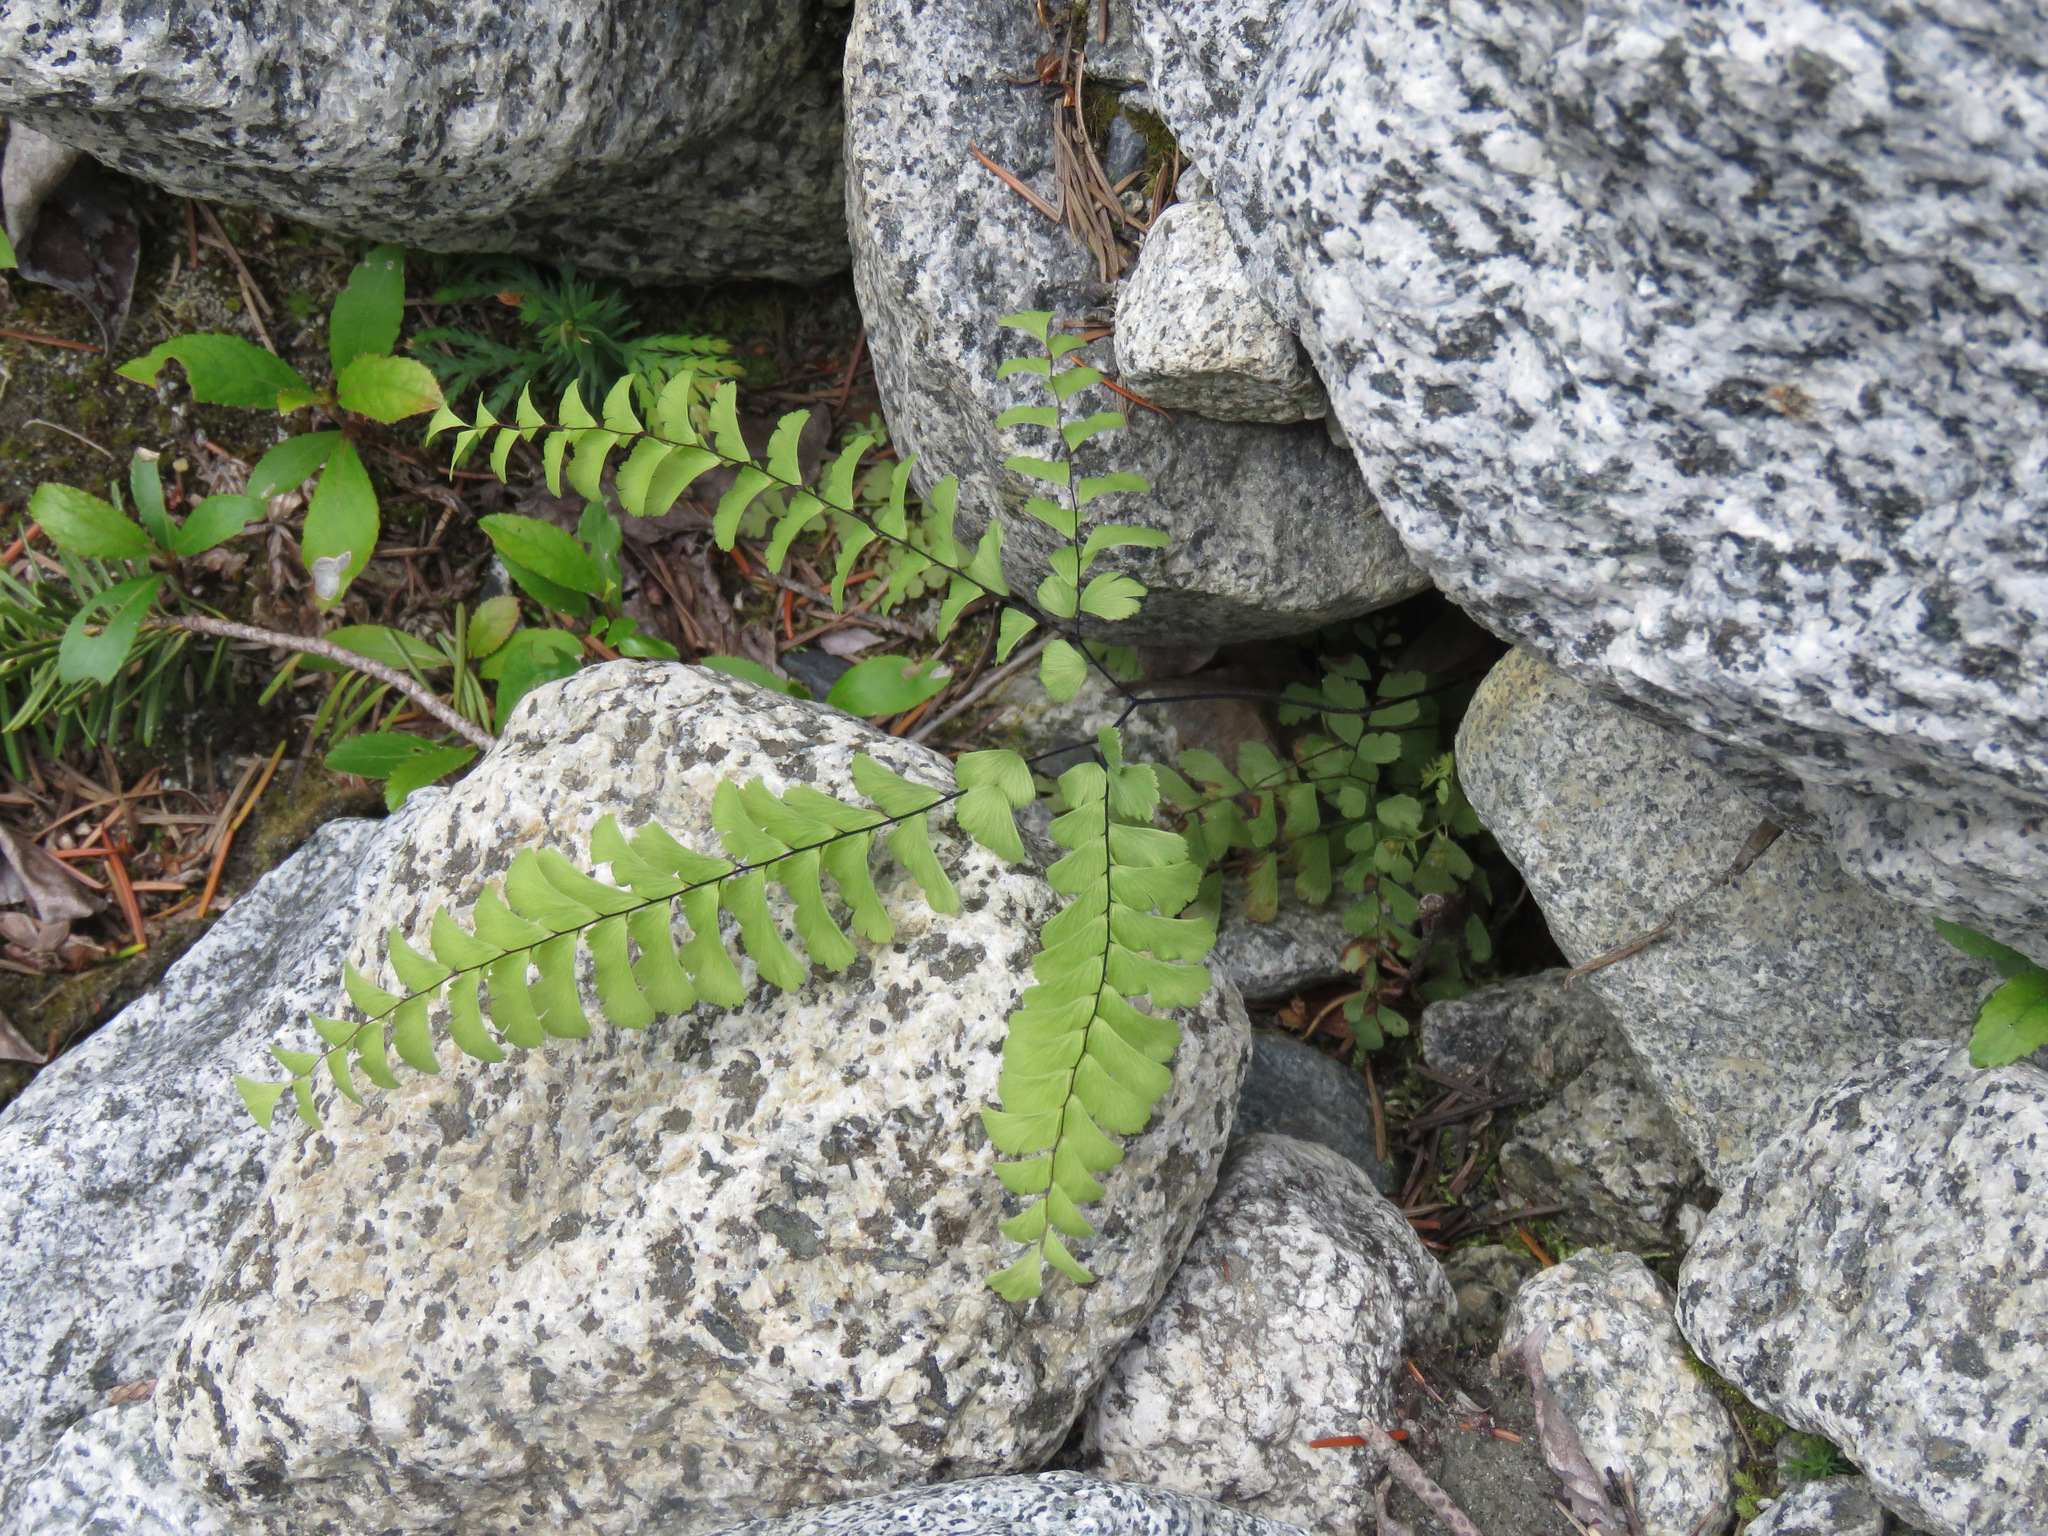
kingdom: Plantae
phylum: Tracheophyta
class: Polypodiopsida
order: Polypodiales
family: Pteridaceae
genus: Adiantum
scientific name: Adiantum aleuticum
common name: Aleutian maidenhair fern
